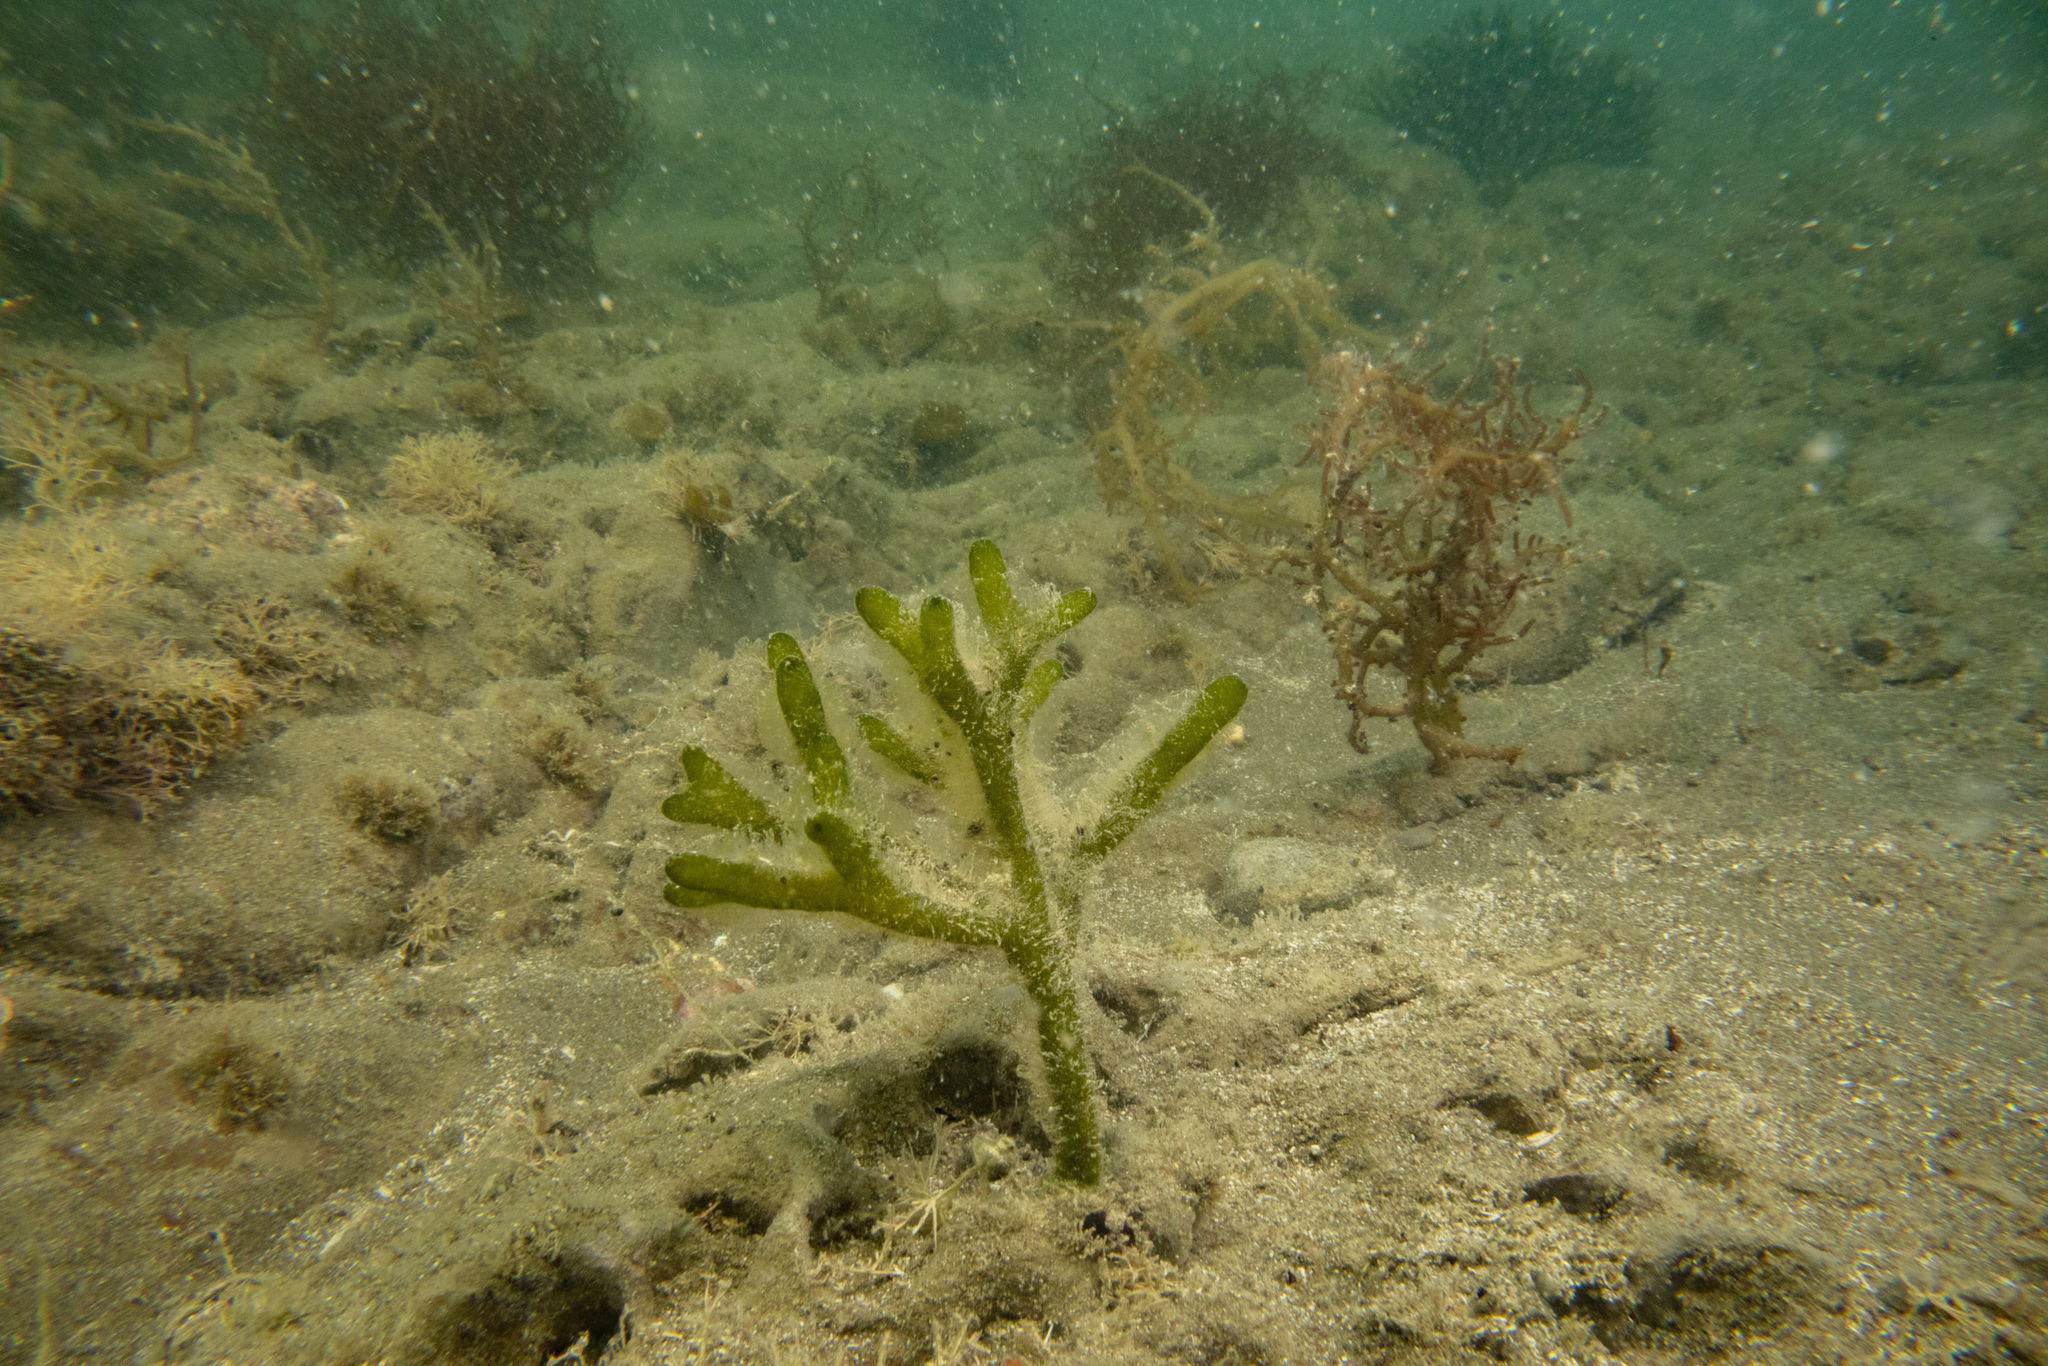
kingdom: Plantae
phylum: Chlorophyta
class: Ulvophyceae
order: Bryopsidales
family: Codiaceae
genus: Codium
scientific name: Codium fragile
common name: Dead man's fingers
